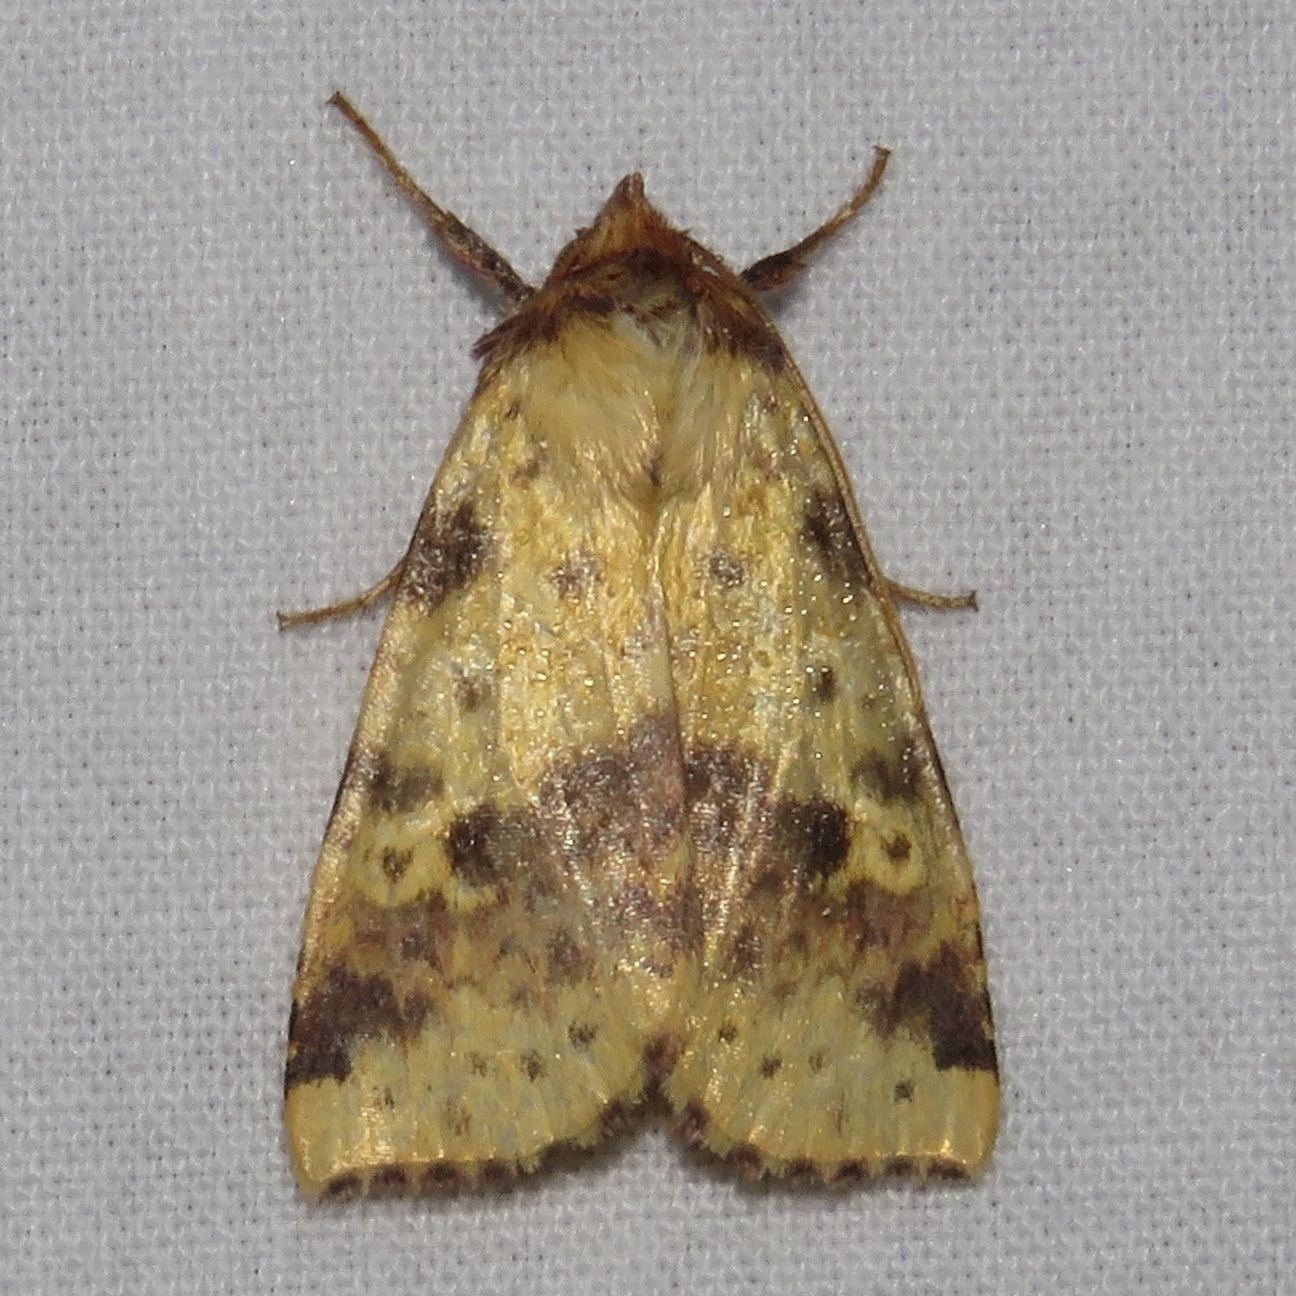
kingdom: Animalia
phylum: Arthropoda
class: Insecta
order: Lepidoptera
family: Noctuidae
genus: Xanthia
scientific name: Xanthia tatago
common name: Pink-banded sallow
